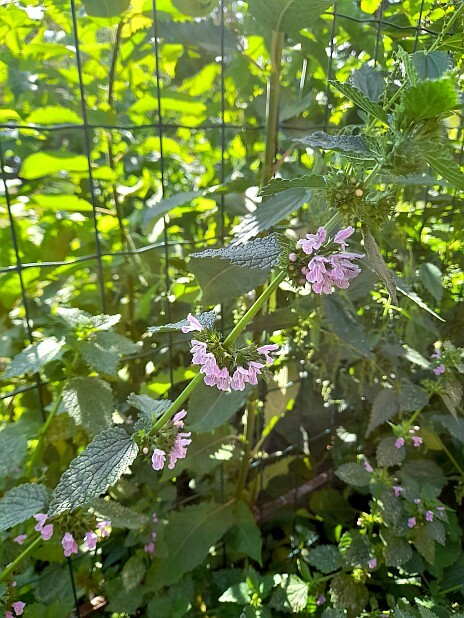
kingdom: Plantae
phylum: Tracheophyta
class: Magnoliopsida
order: Lamiales
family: Lamiaceae
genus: Ballota
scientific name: Ballota nigra
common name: Black horehound
